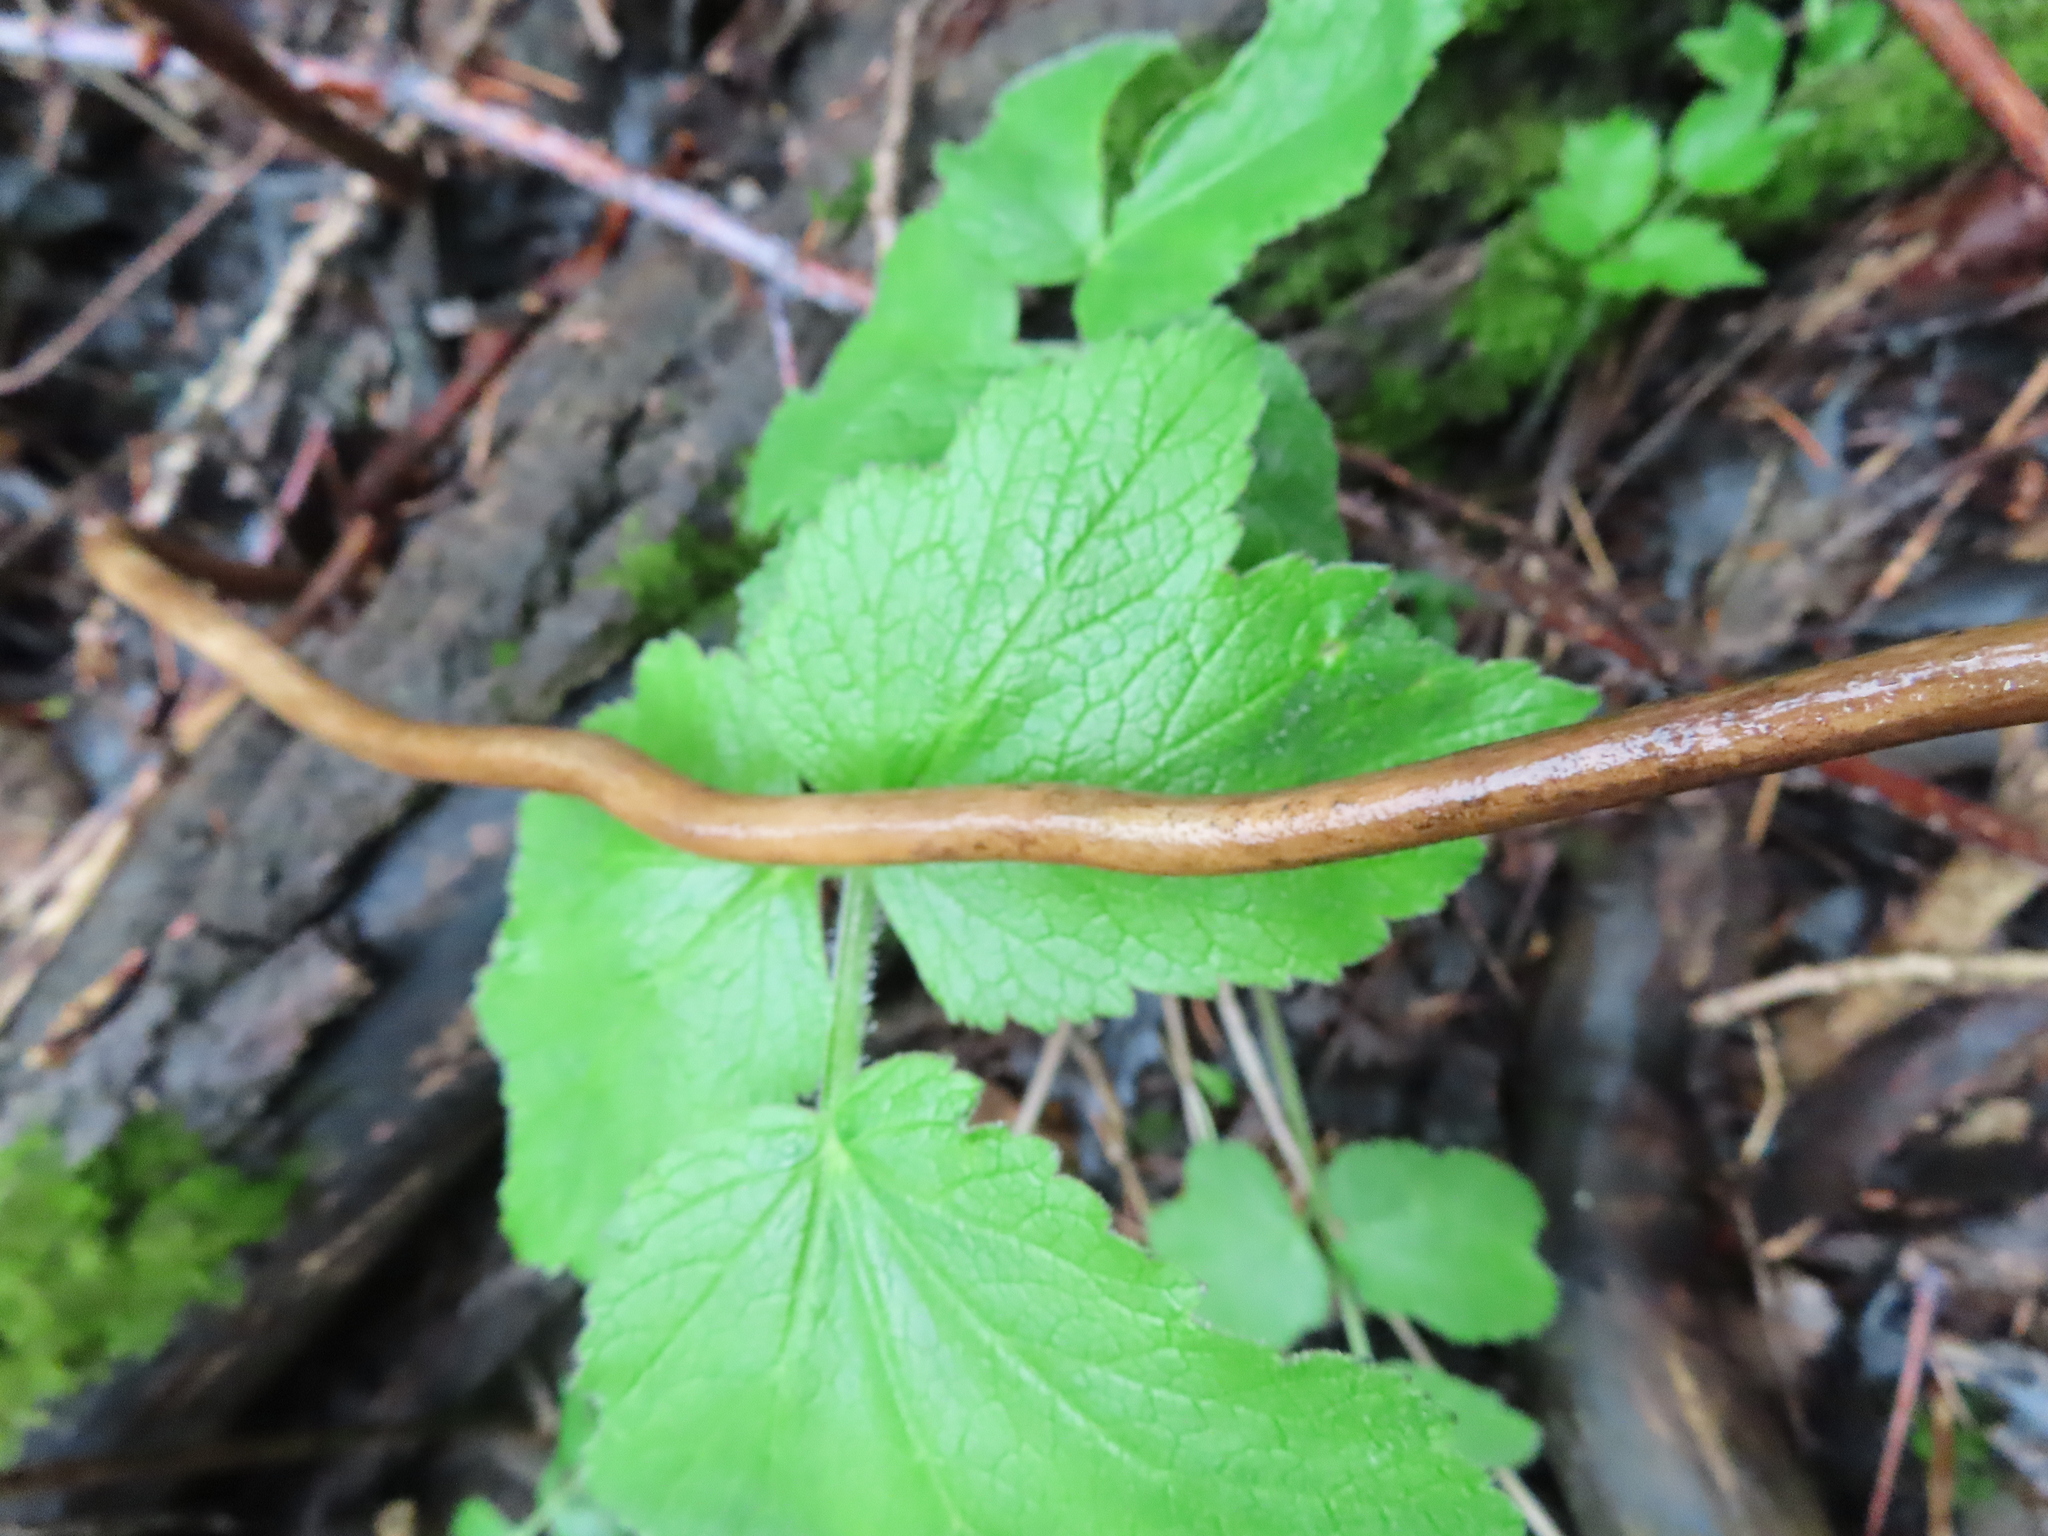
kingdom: Plantae
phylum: Tracheophyta
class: Magnoliopsida
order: Apiales
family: Apiaceae
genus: Heracleum
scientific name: Heracleum maximum
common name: American cow parsnip
